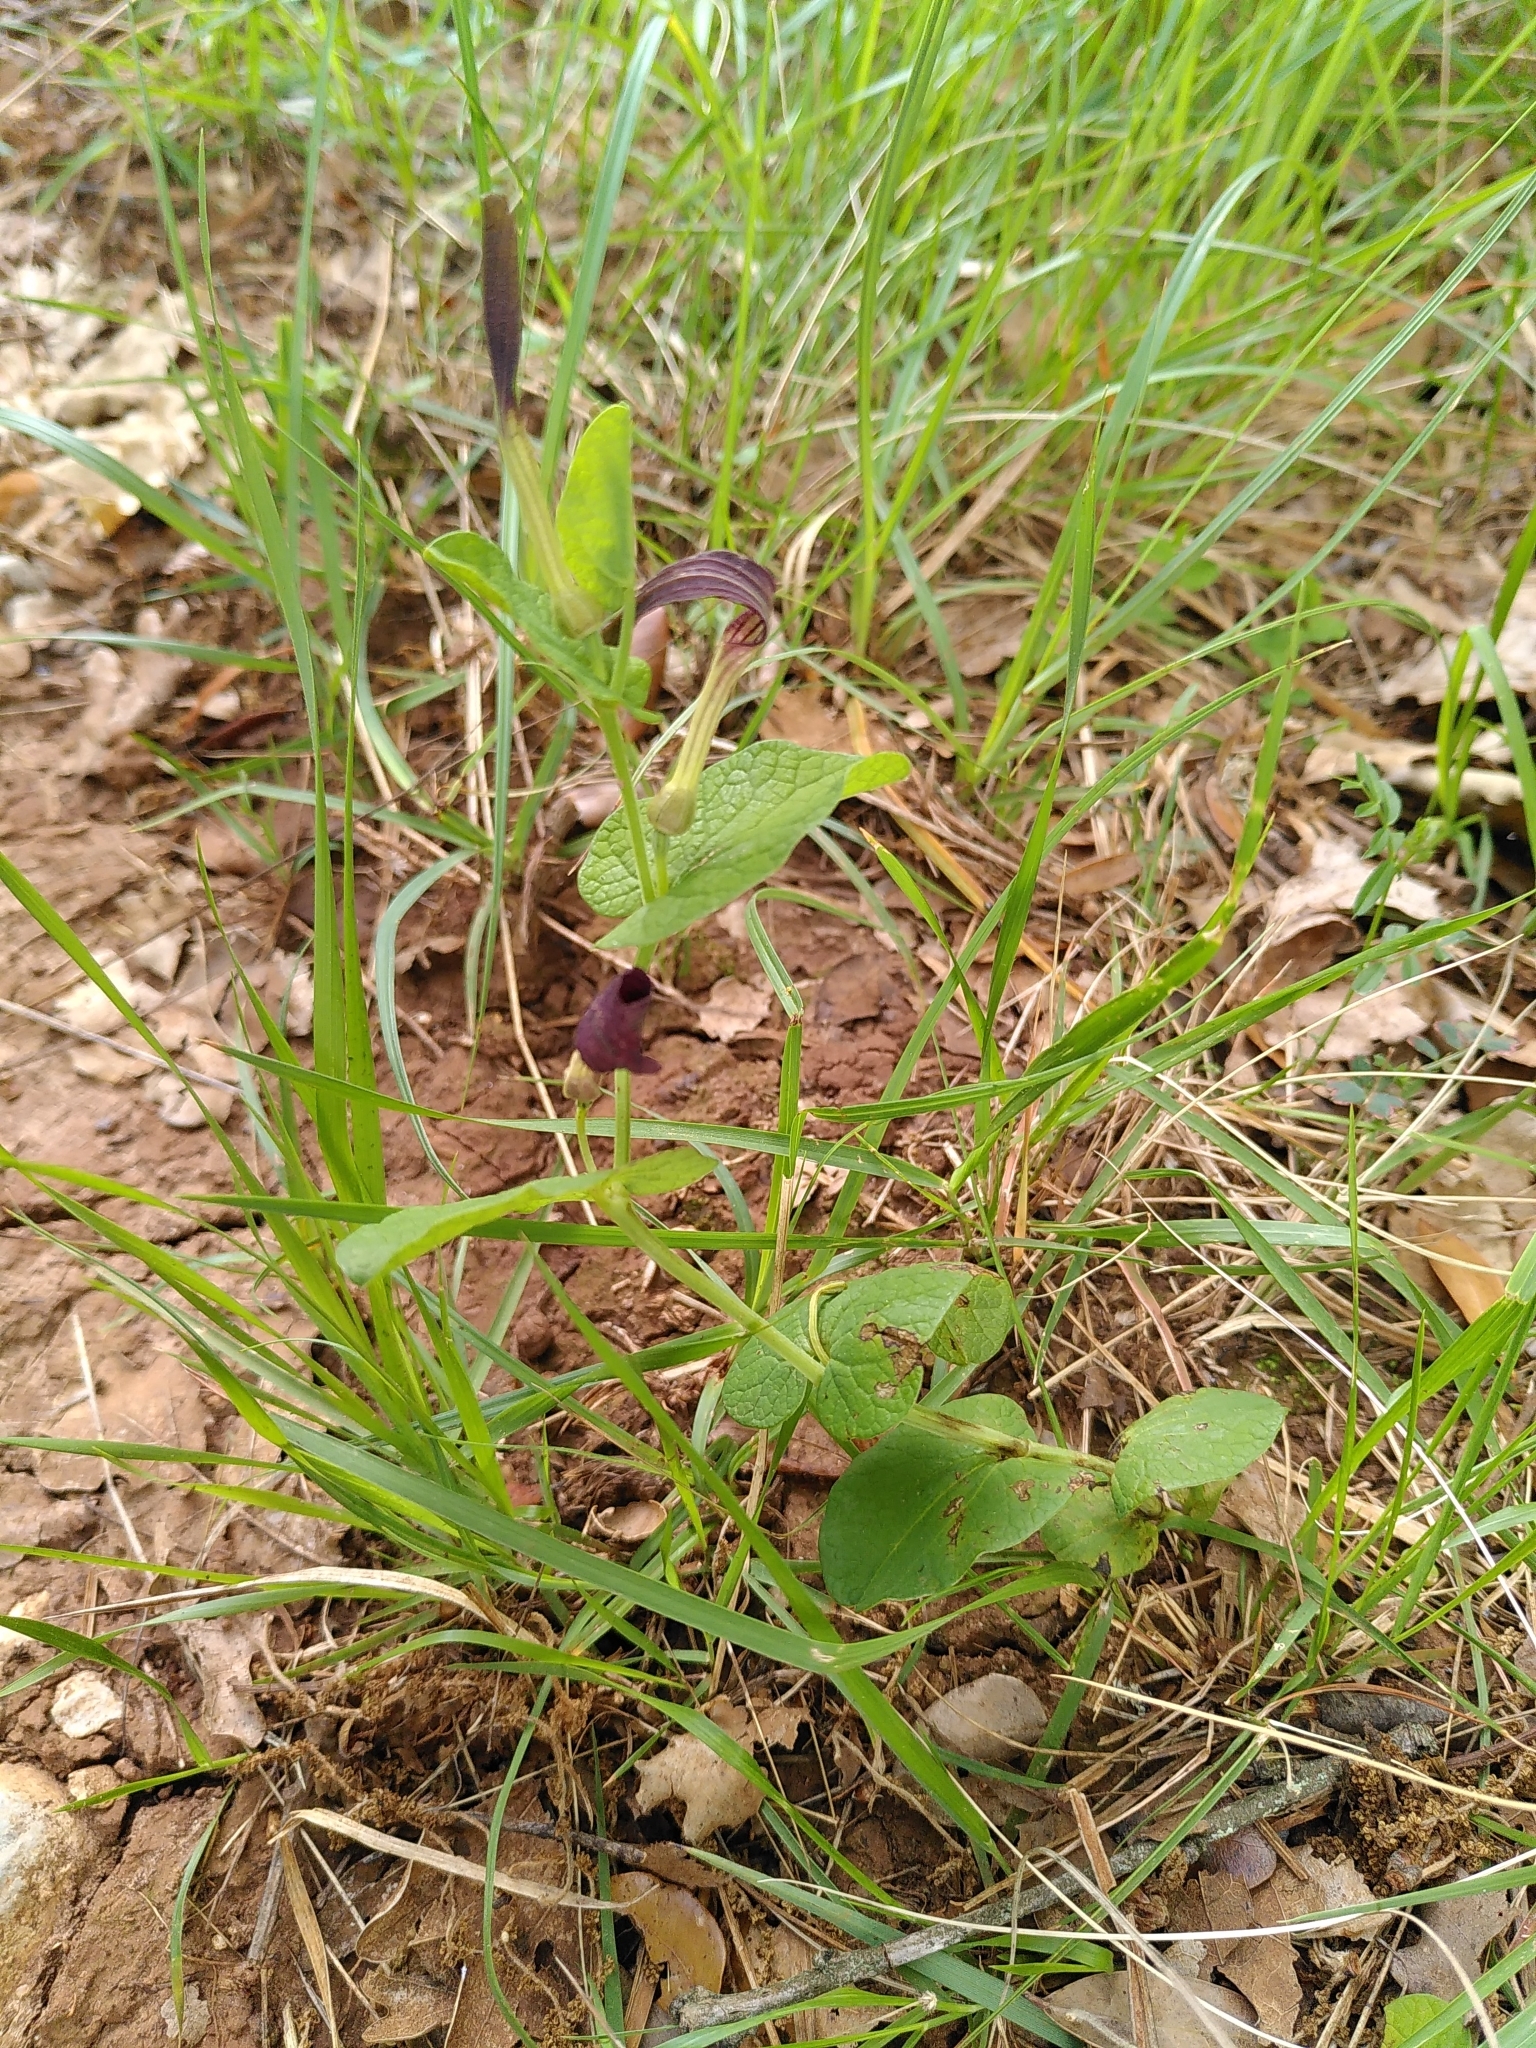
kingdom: Plantae
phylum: Tracheophyta
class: Magnoliopsida
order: Piperales
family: Aristolochiaceae
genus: Aristolochia
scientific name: Aristolochia rotunda
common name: Smearwort
